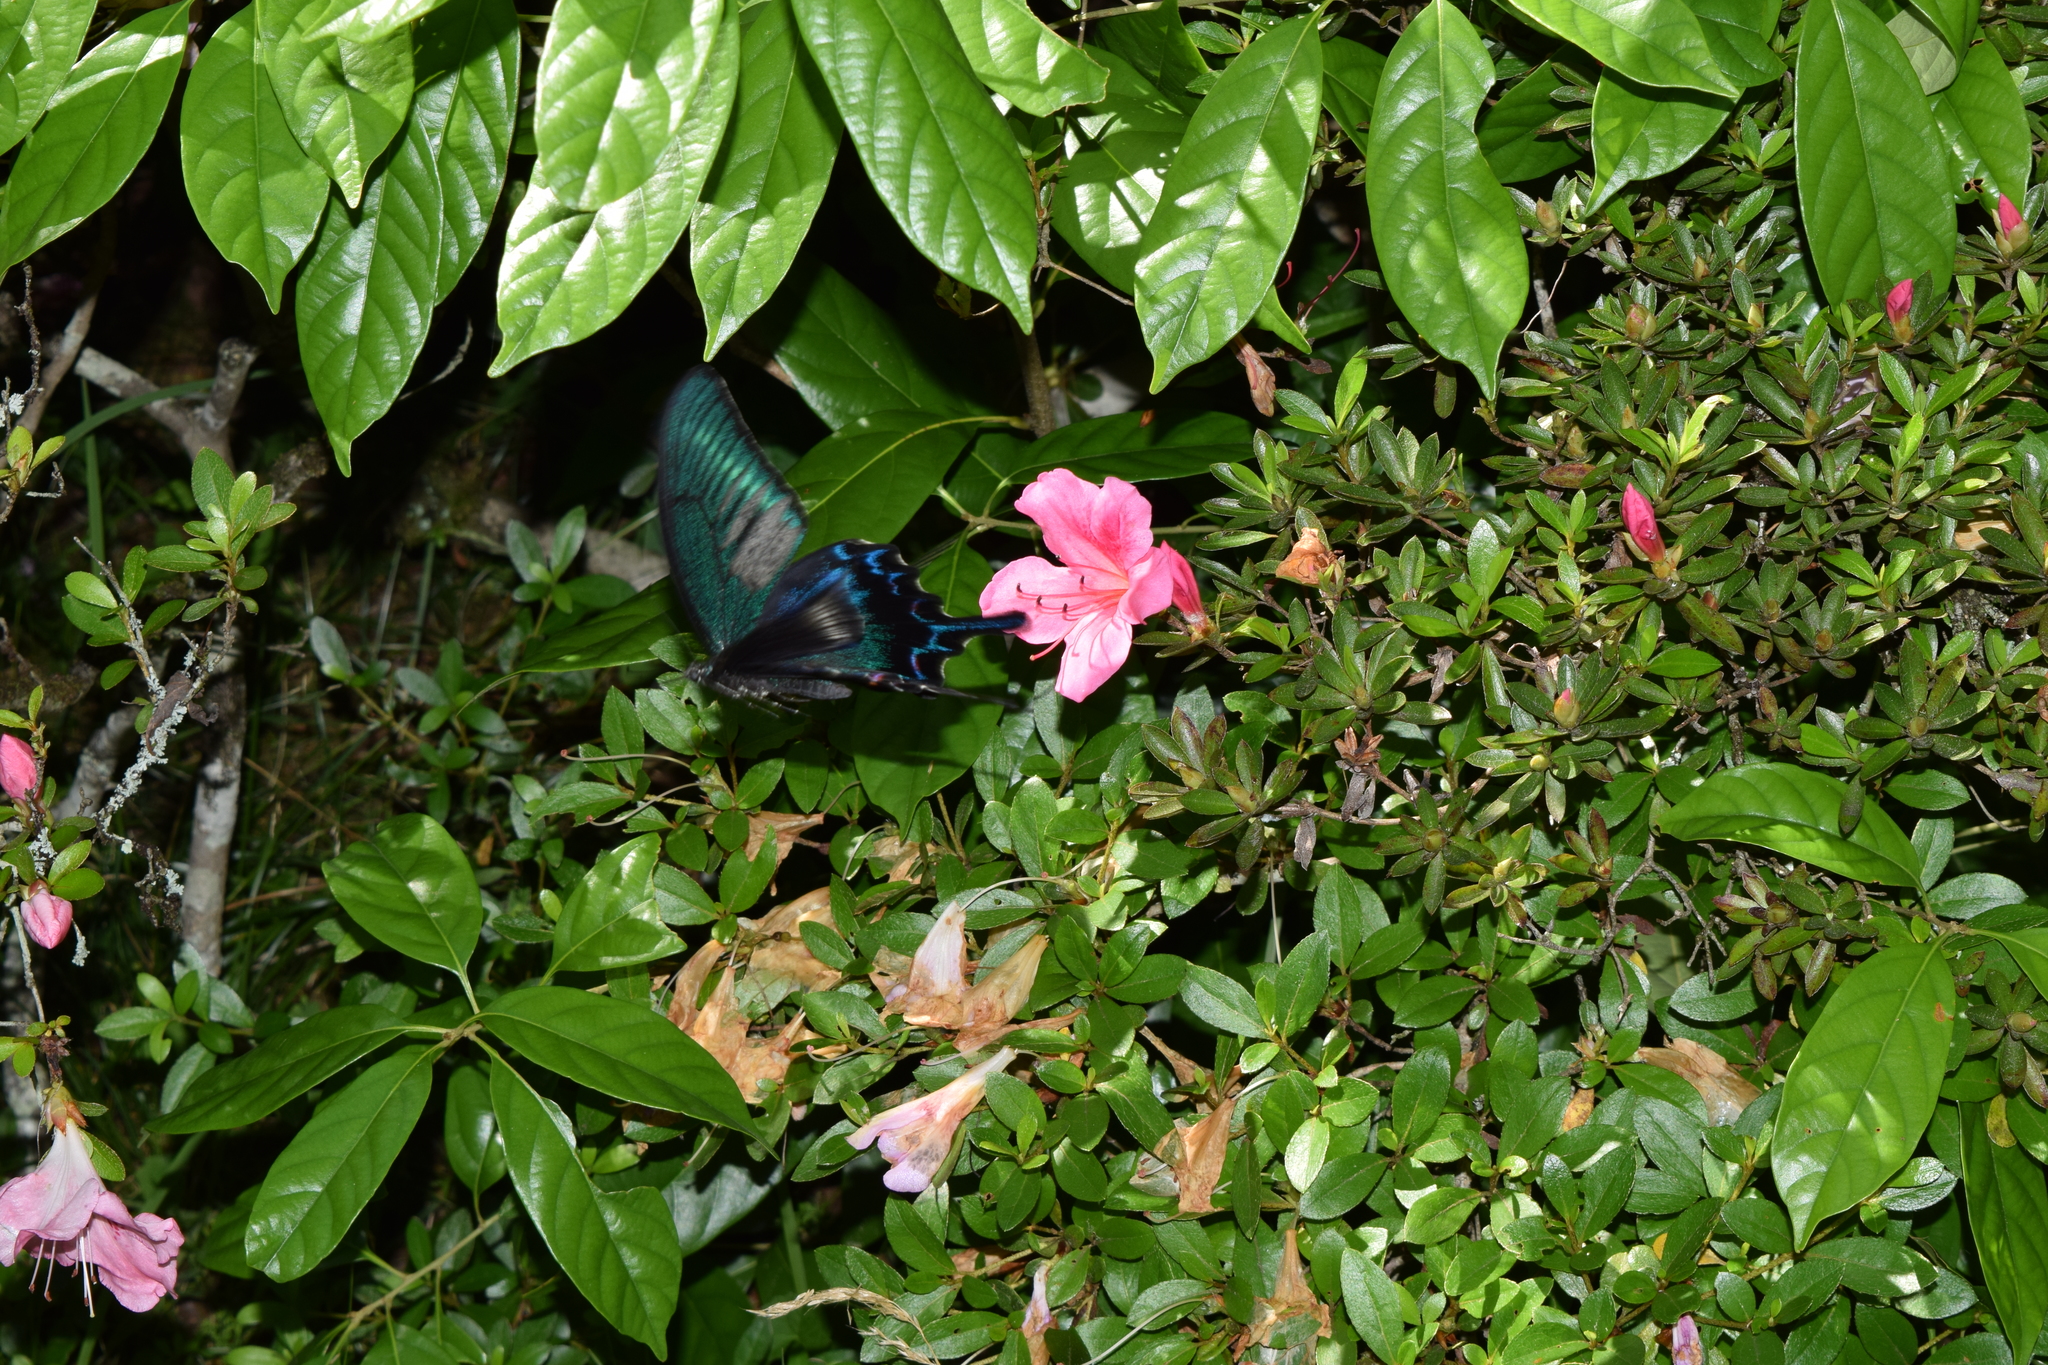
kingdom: Animalia
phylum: Arthropoda
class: Insecta
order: Lepidoptera
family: Papilionidae
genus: Papilio
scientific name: Papilio dehaanii
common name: Japanese peacock swallowtail
